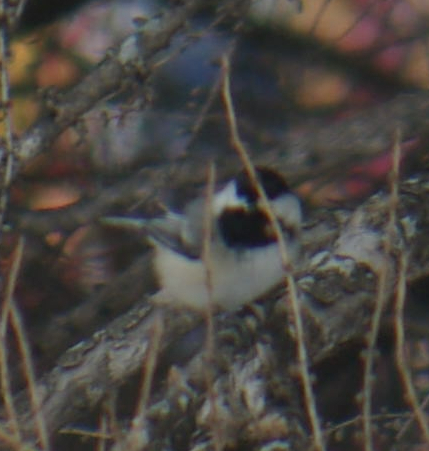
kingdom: Animalia
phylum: Chordata
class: Aves
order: Passeriformes
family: Paridae
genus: Poecile
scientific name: Poecile atricapillus
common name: Black-capped chickadee
